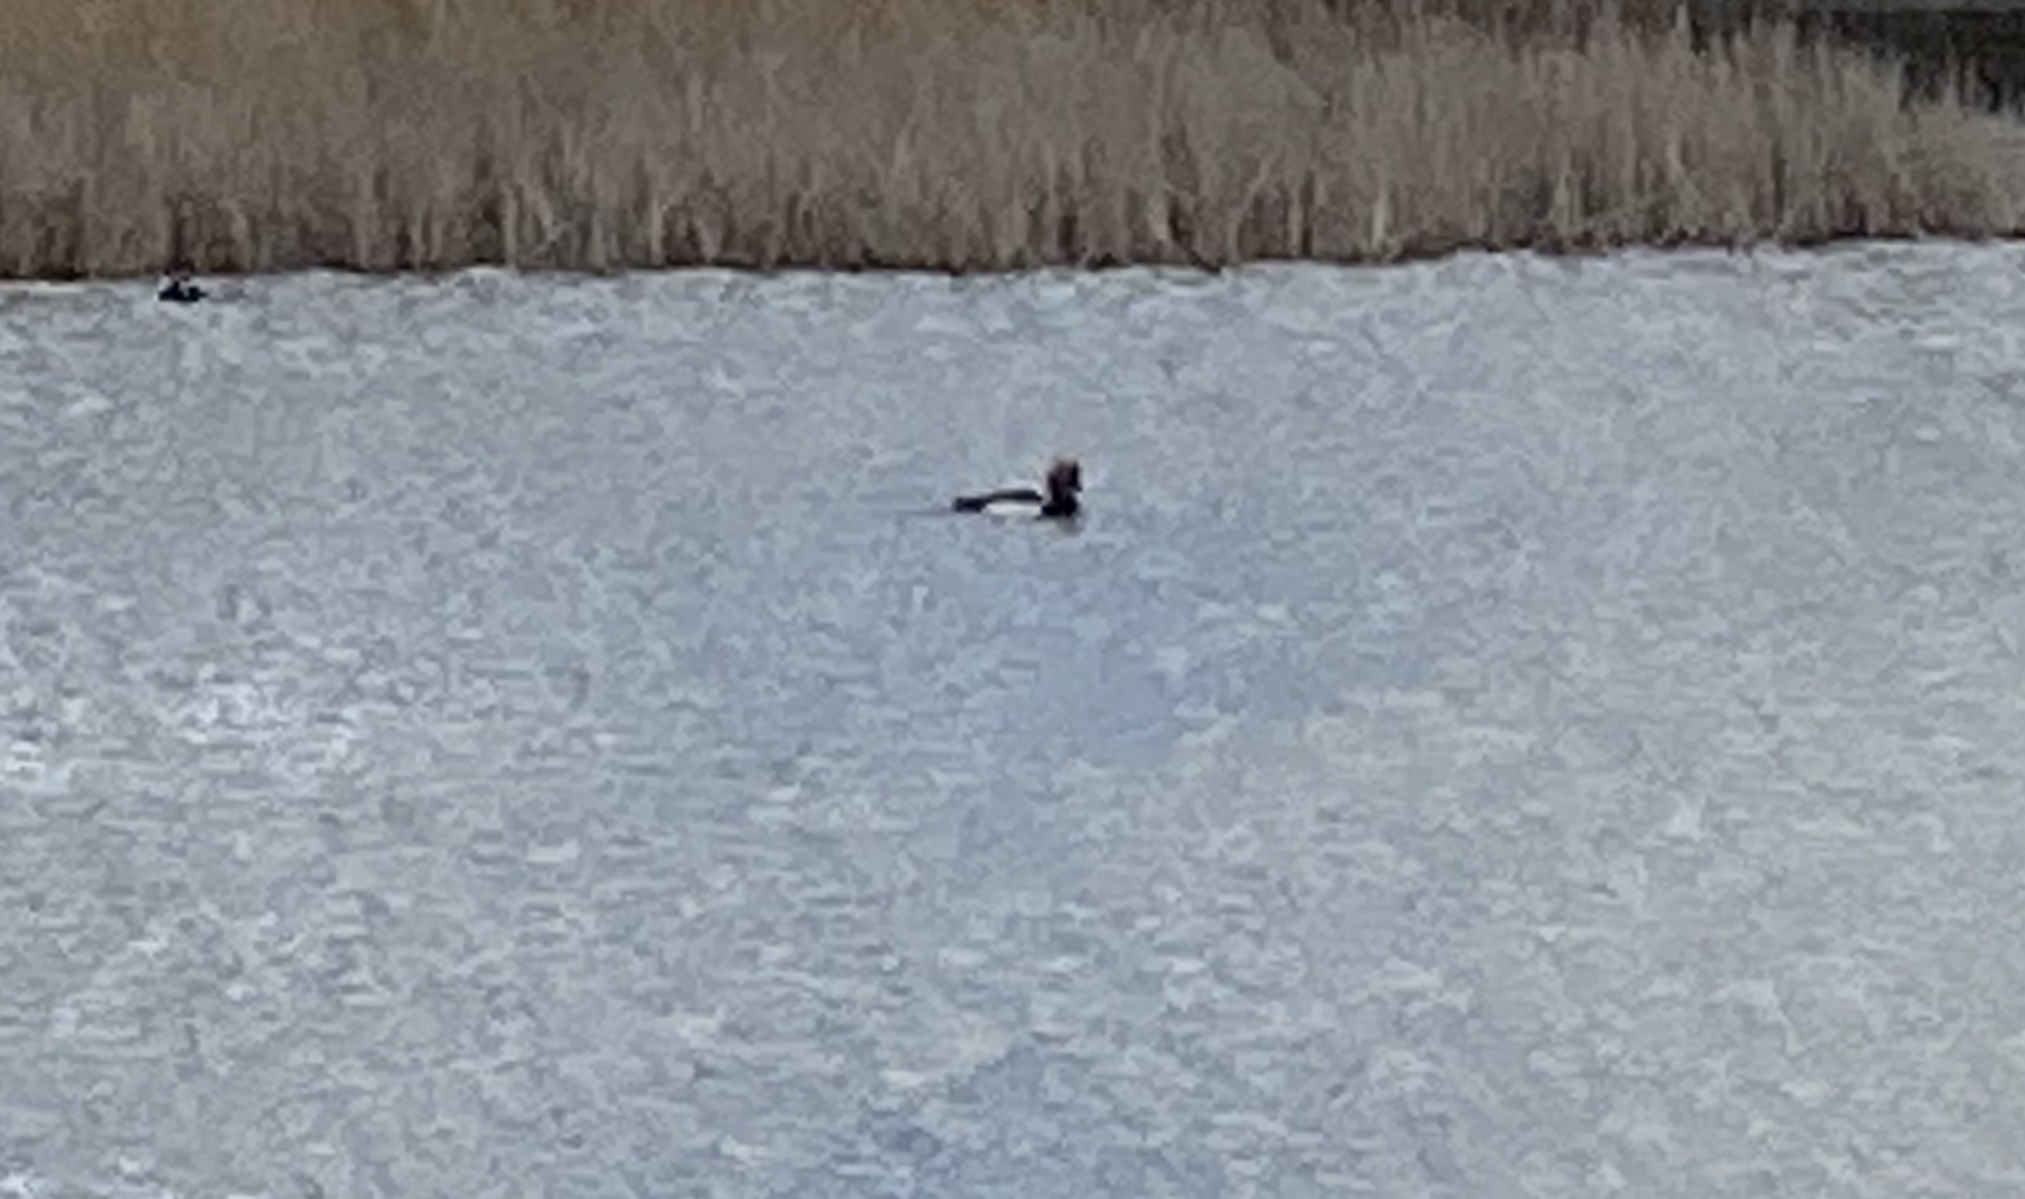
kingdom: Animalia
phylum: Chordata
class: Aves
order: Anseriformes
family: Anatidae
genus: Netta
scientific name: Netta rufina
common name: Red-crested pochard
